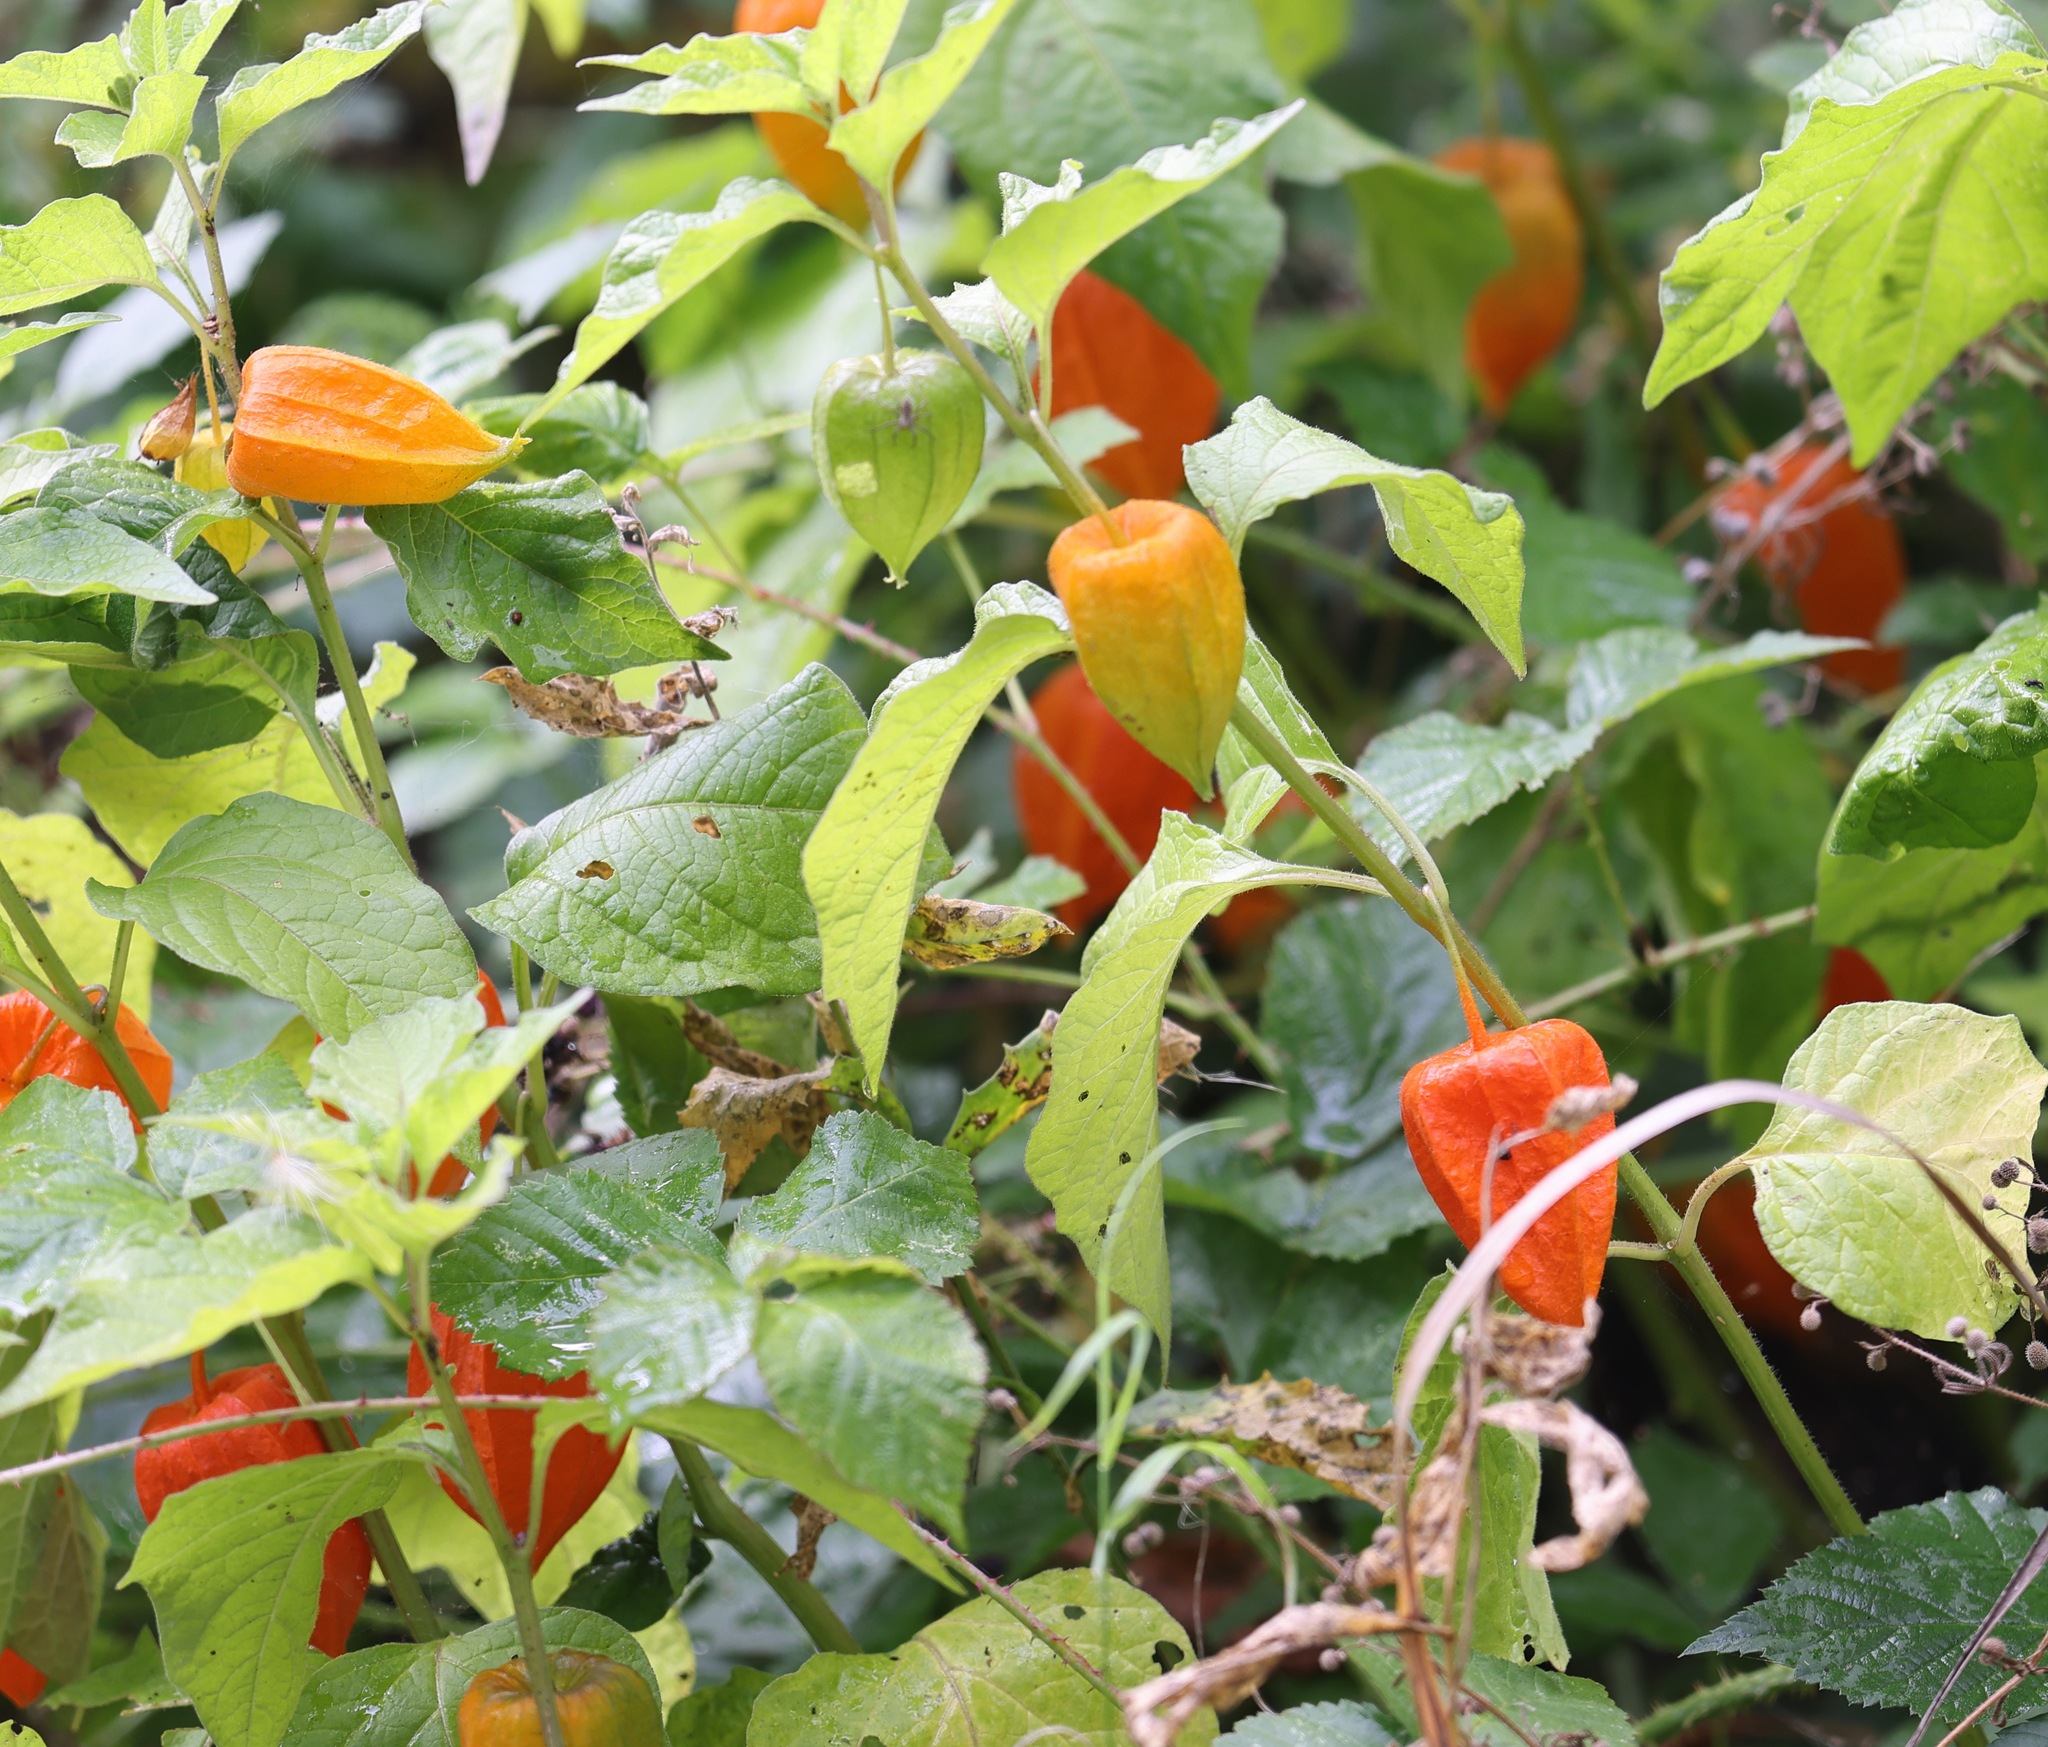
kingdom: Plantae
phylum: Tracheophyta
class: Magnoliopsida
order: Solanales
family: Solanaceae
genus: Alkekengi
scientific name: Alkekengi officinarum
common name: Japanese-lantern
